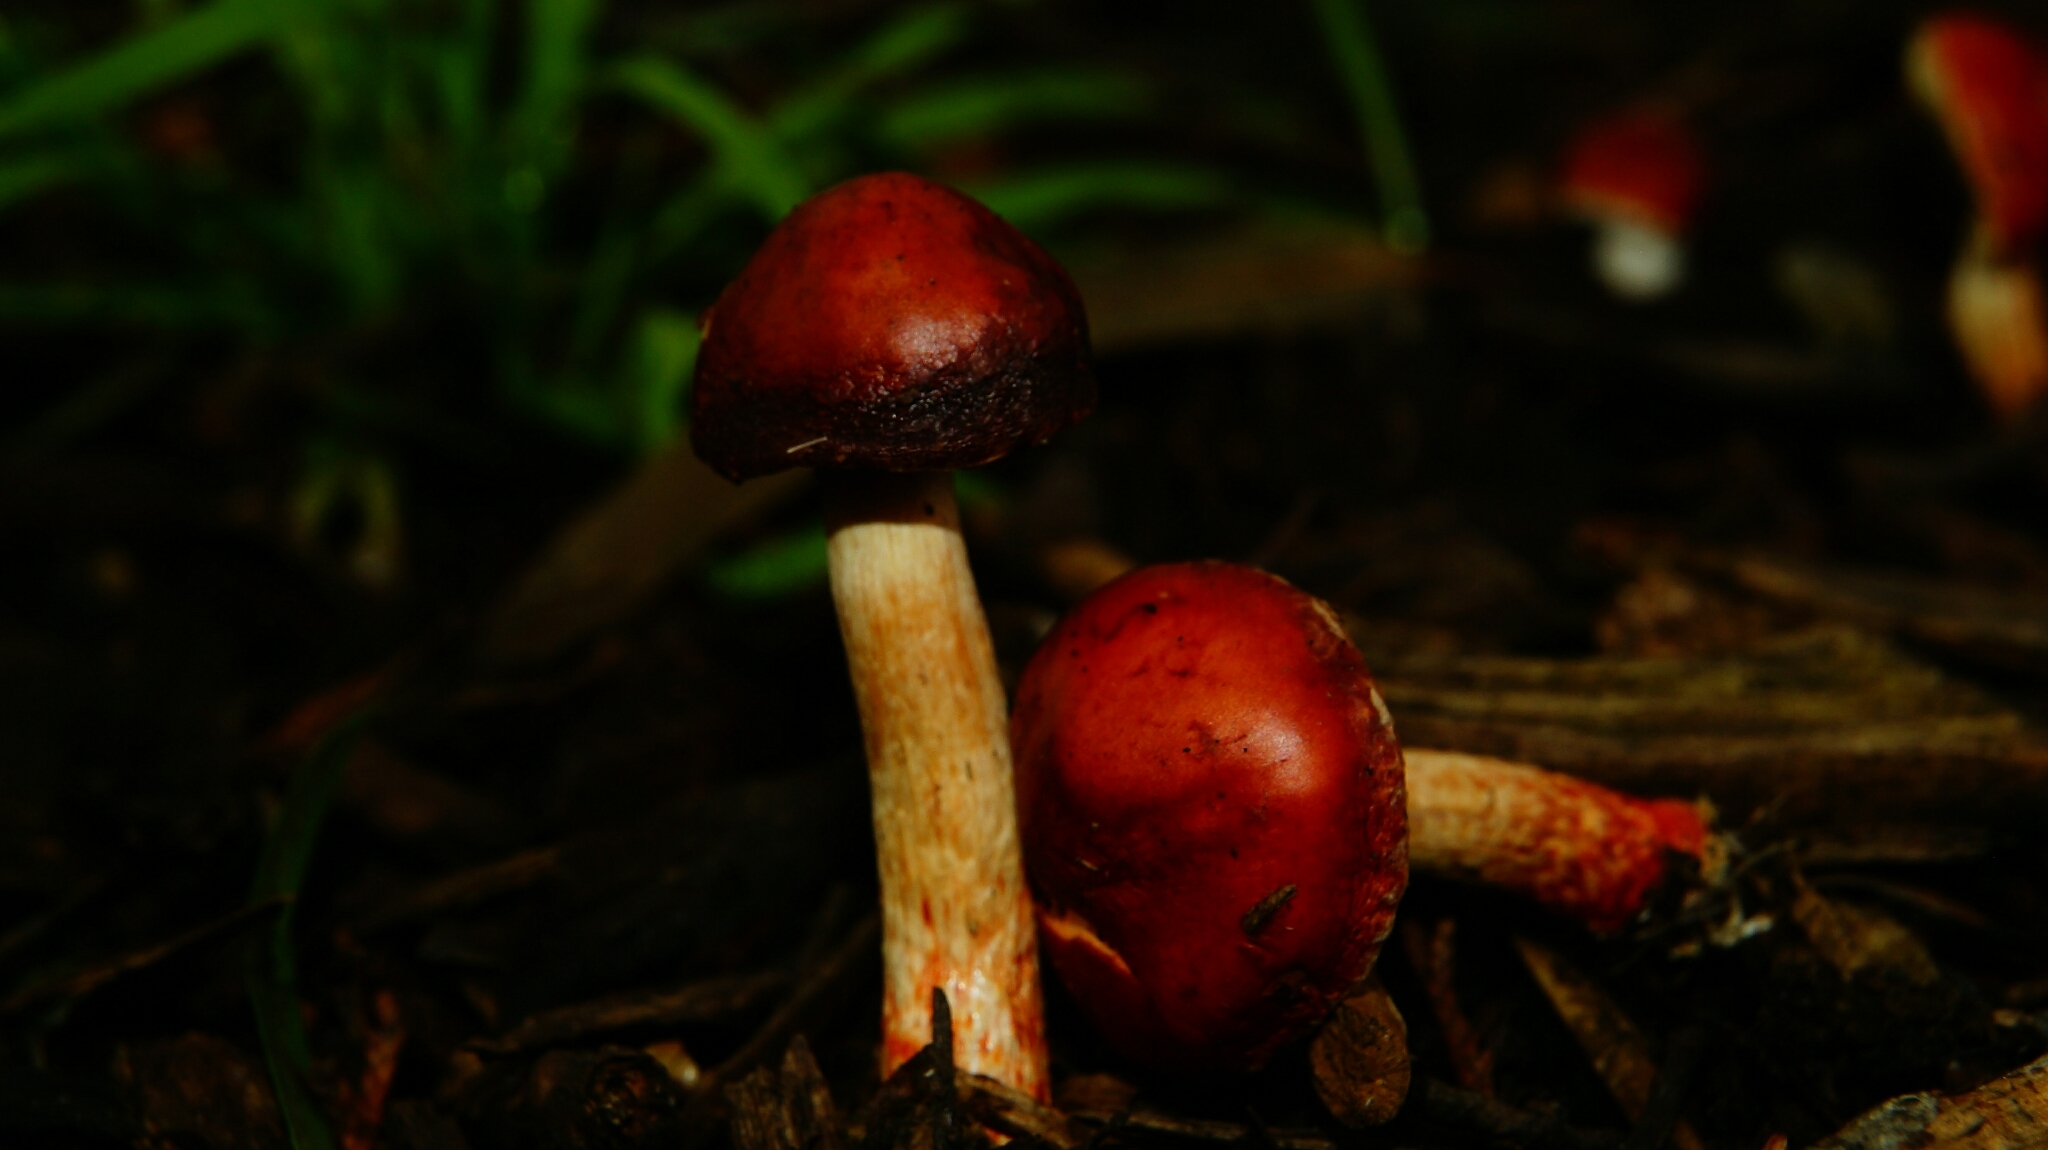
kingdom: Fungi
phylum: Basidiomycota
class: Agaricomycetes
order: Agaricales
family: Strophariaceae
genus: Leratiomyces
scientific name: Leratiomyces ceres
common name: Redlead roundhead
